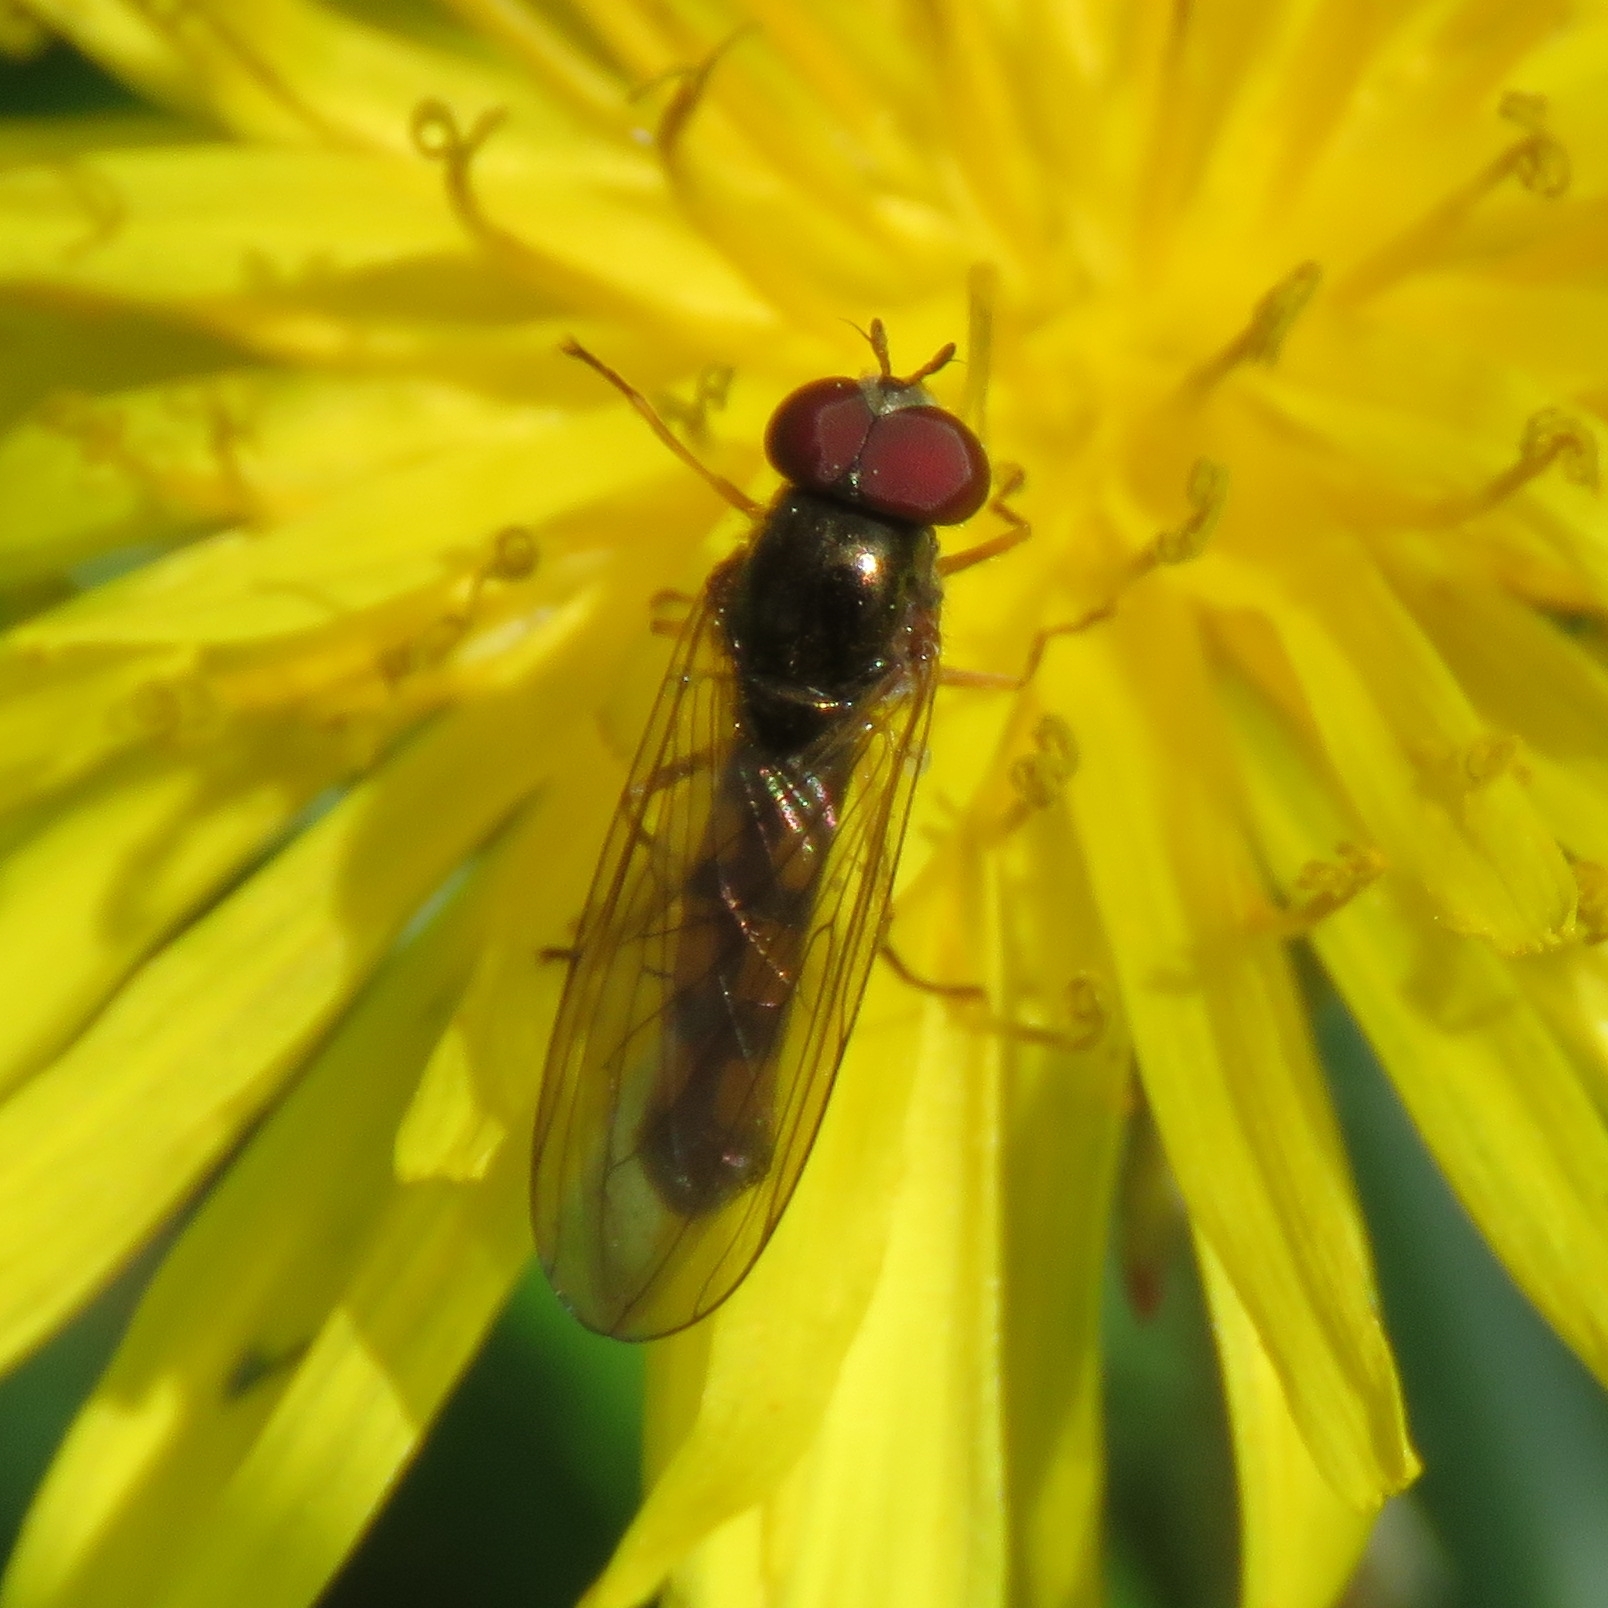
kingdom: Animalia
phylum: Arthropoda
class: Insecta
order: Diptera
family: Syrphidae
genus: Melanostoma
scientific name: Melanostoma scalare
